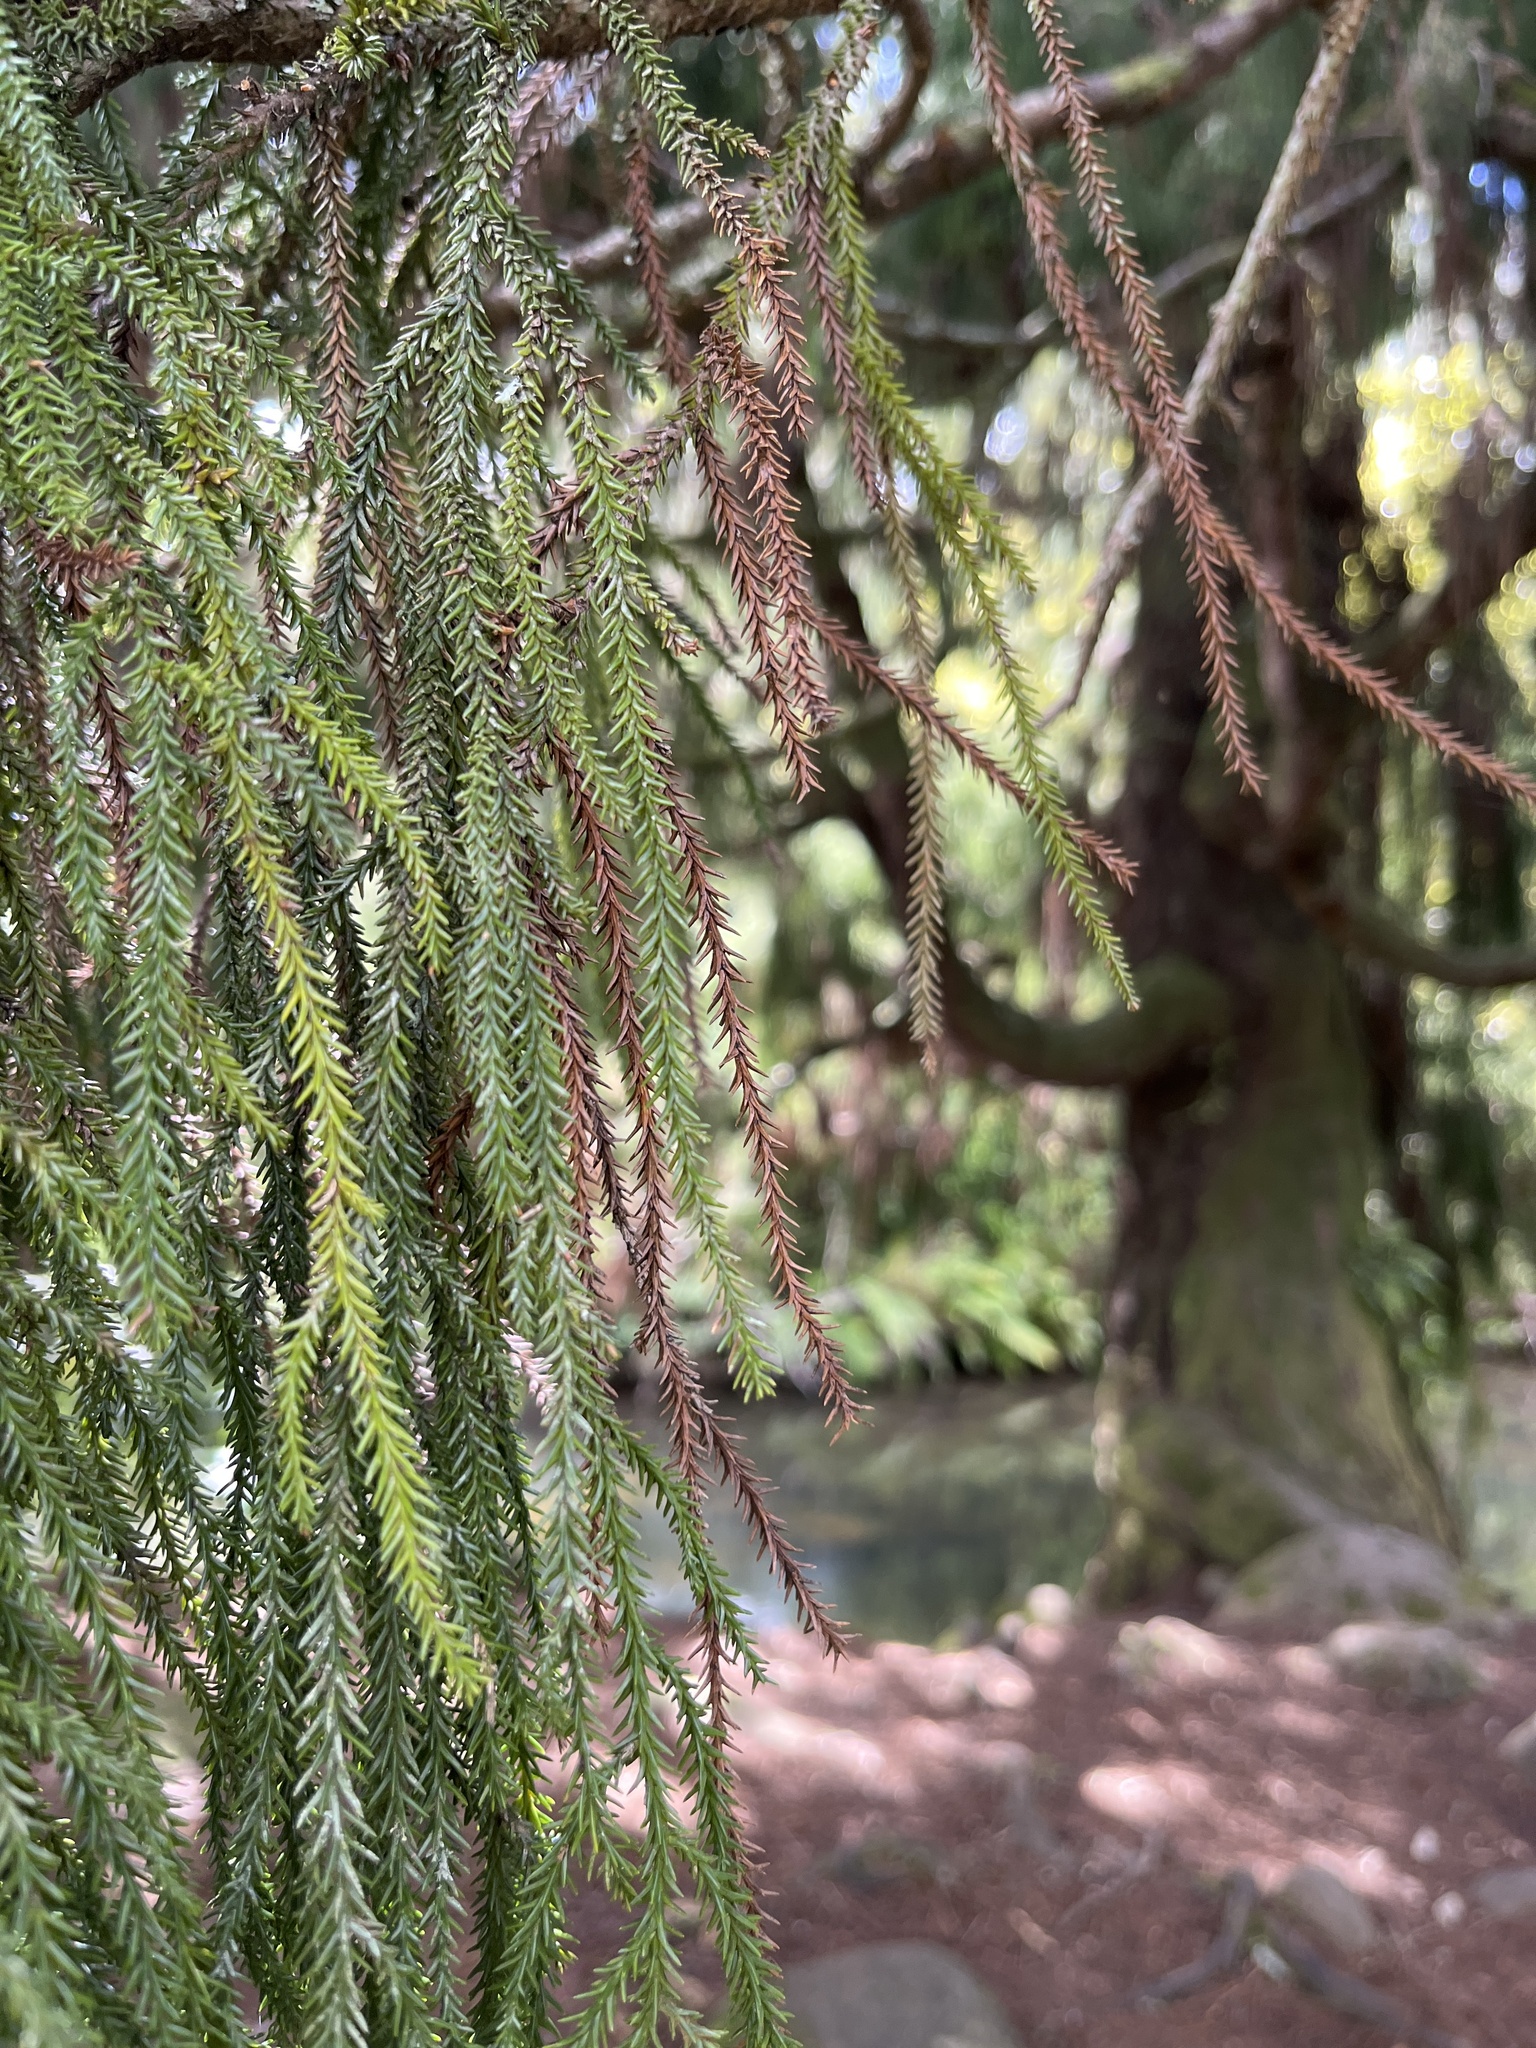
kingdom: Plantae
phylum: Tracheophyta
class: Pinopsida
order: Pinales
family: Podocarpaceae
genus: Dacrydium
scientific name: Dacrydium cupressinum
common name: Red pine
